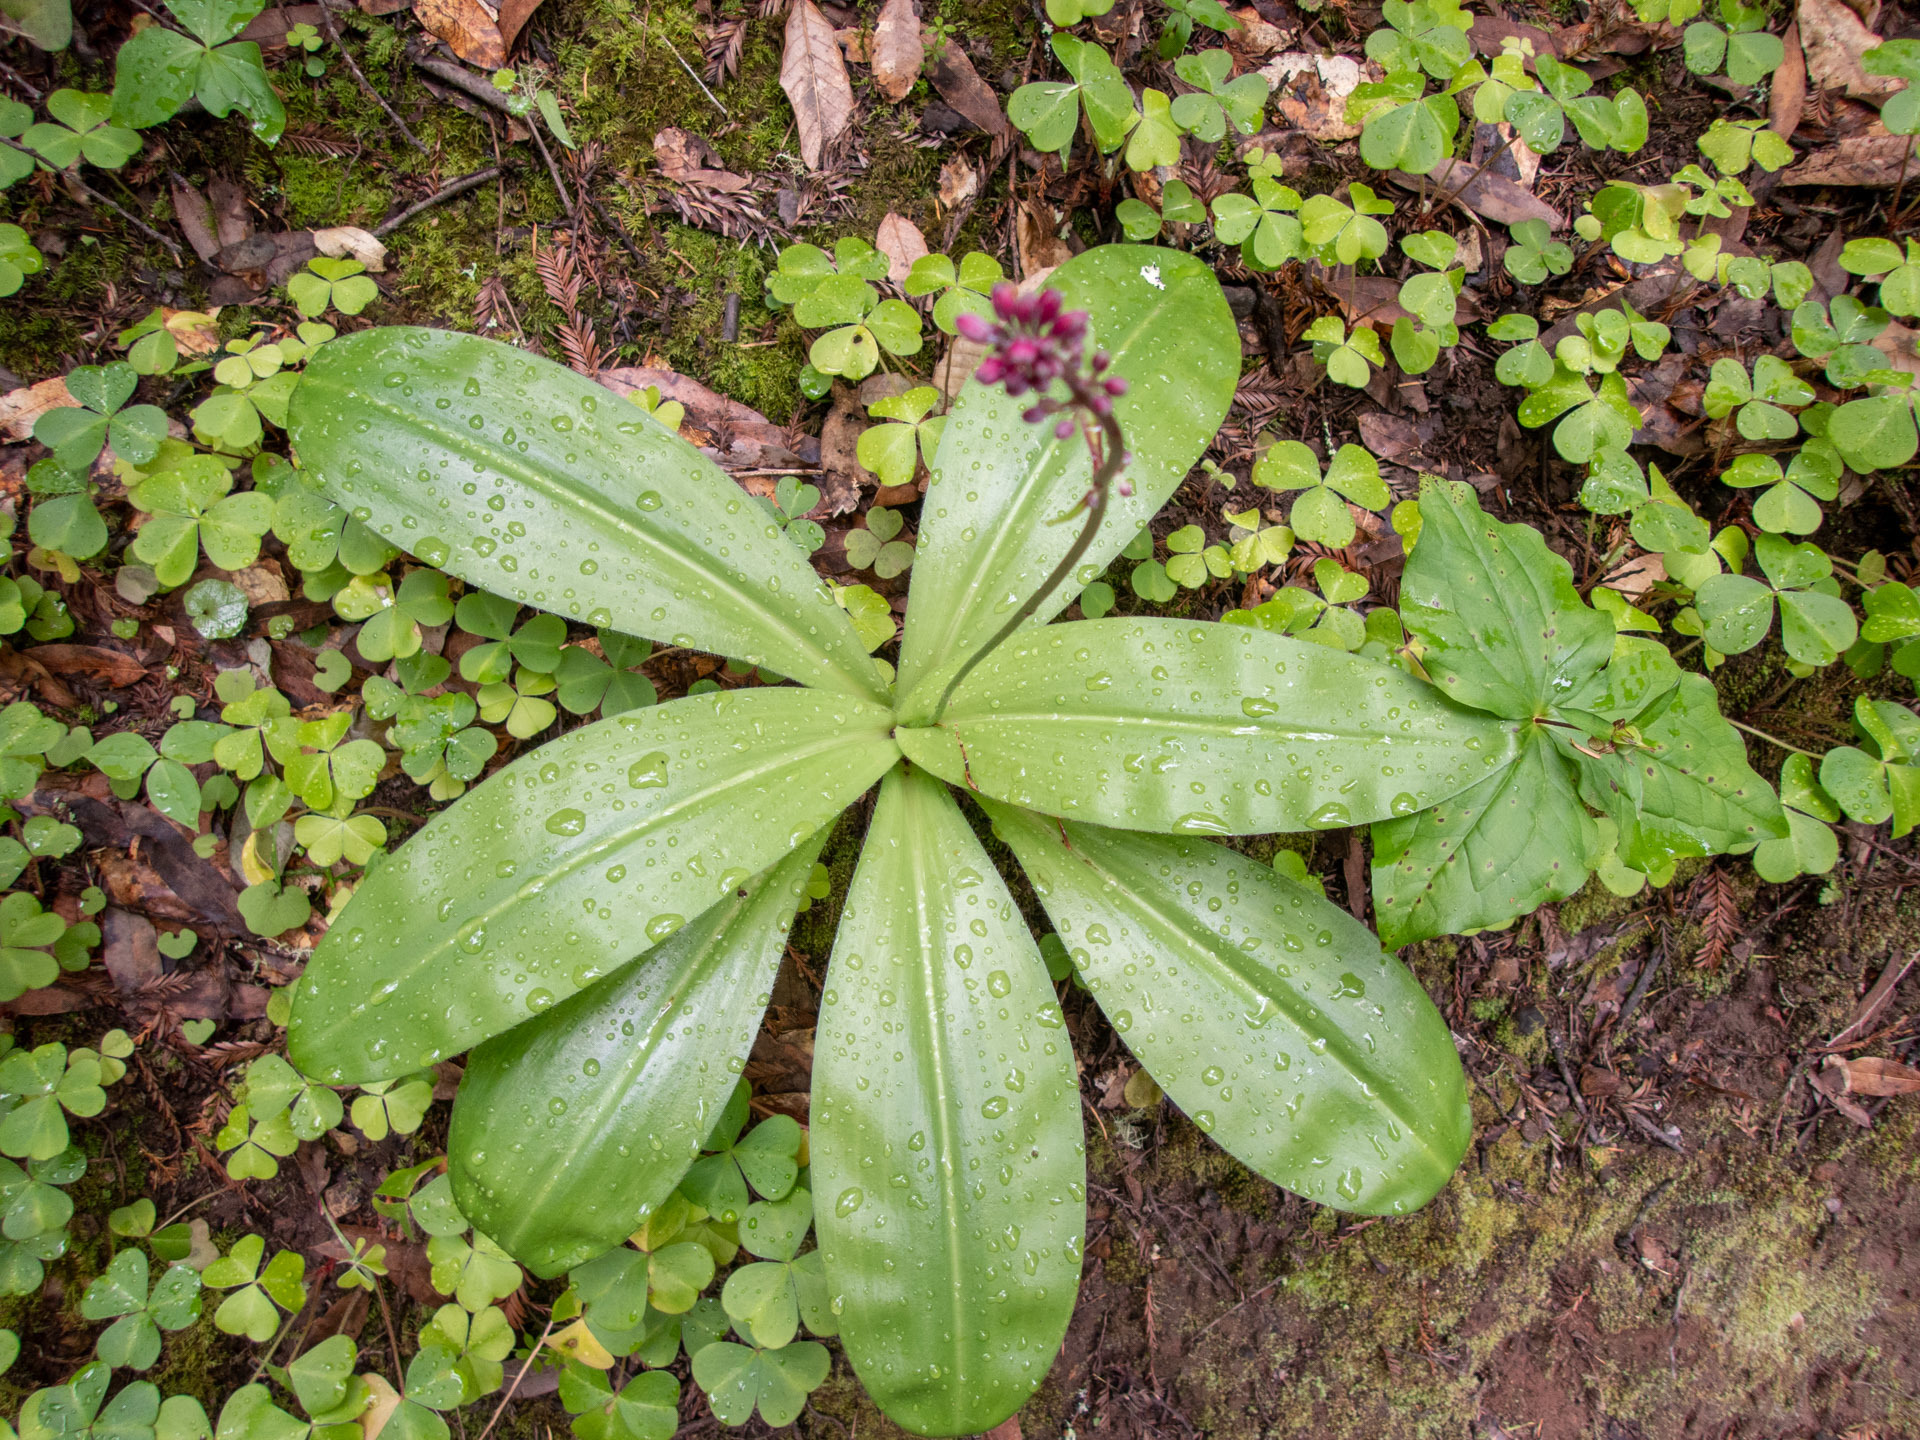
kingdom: Plantae
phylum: Tracheophyta
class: Liliopsida
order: Liliales
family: Liliaceae
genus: Clintonia
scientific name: Clintonia andrewsiana
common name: Red clintonia
